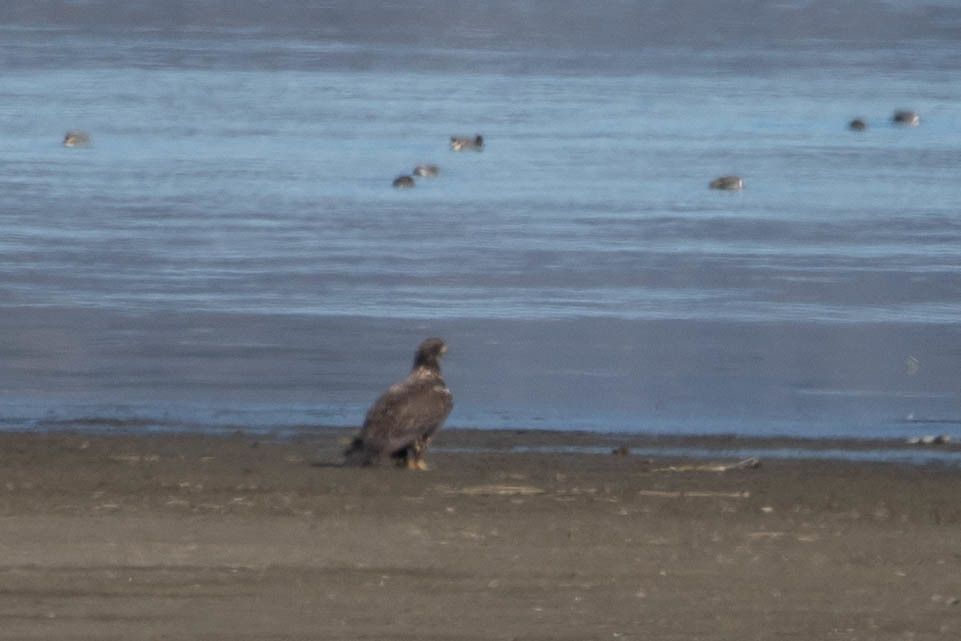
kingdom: Animalia
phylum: Chordata
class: Aves
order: Accipitriformes
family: Accipitridae
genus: Haliaeetus
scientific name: Haliaeetus leucocephalus
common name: Bald eagle
